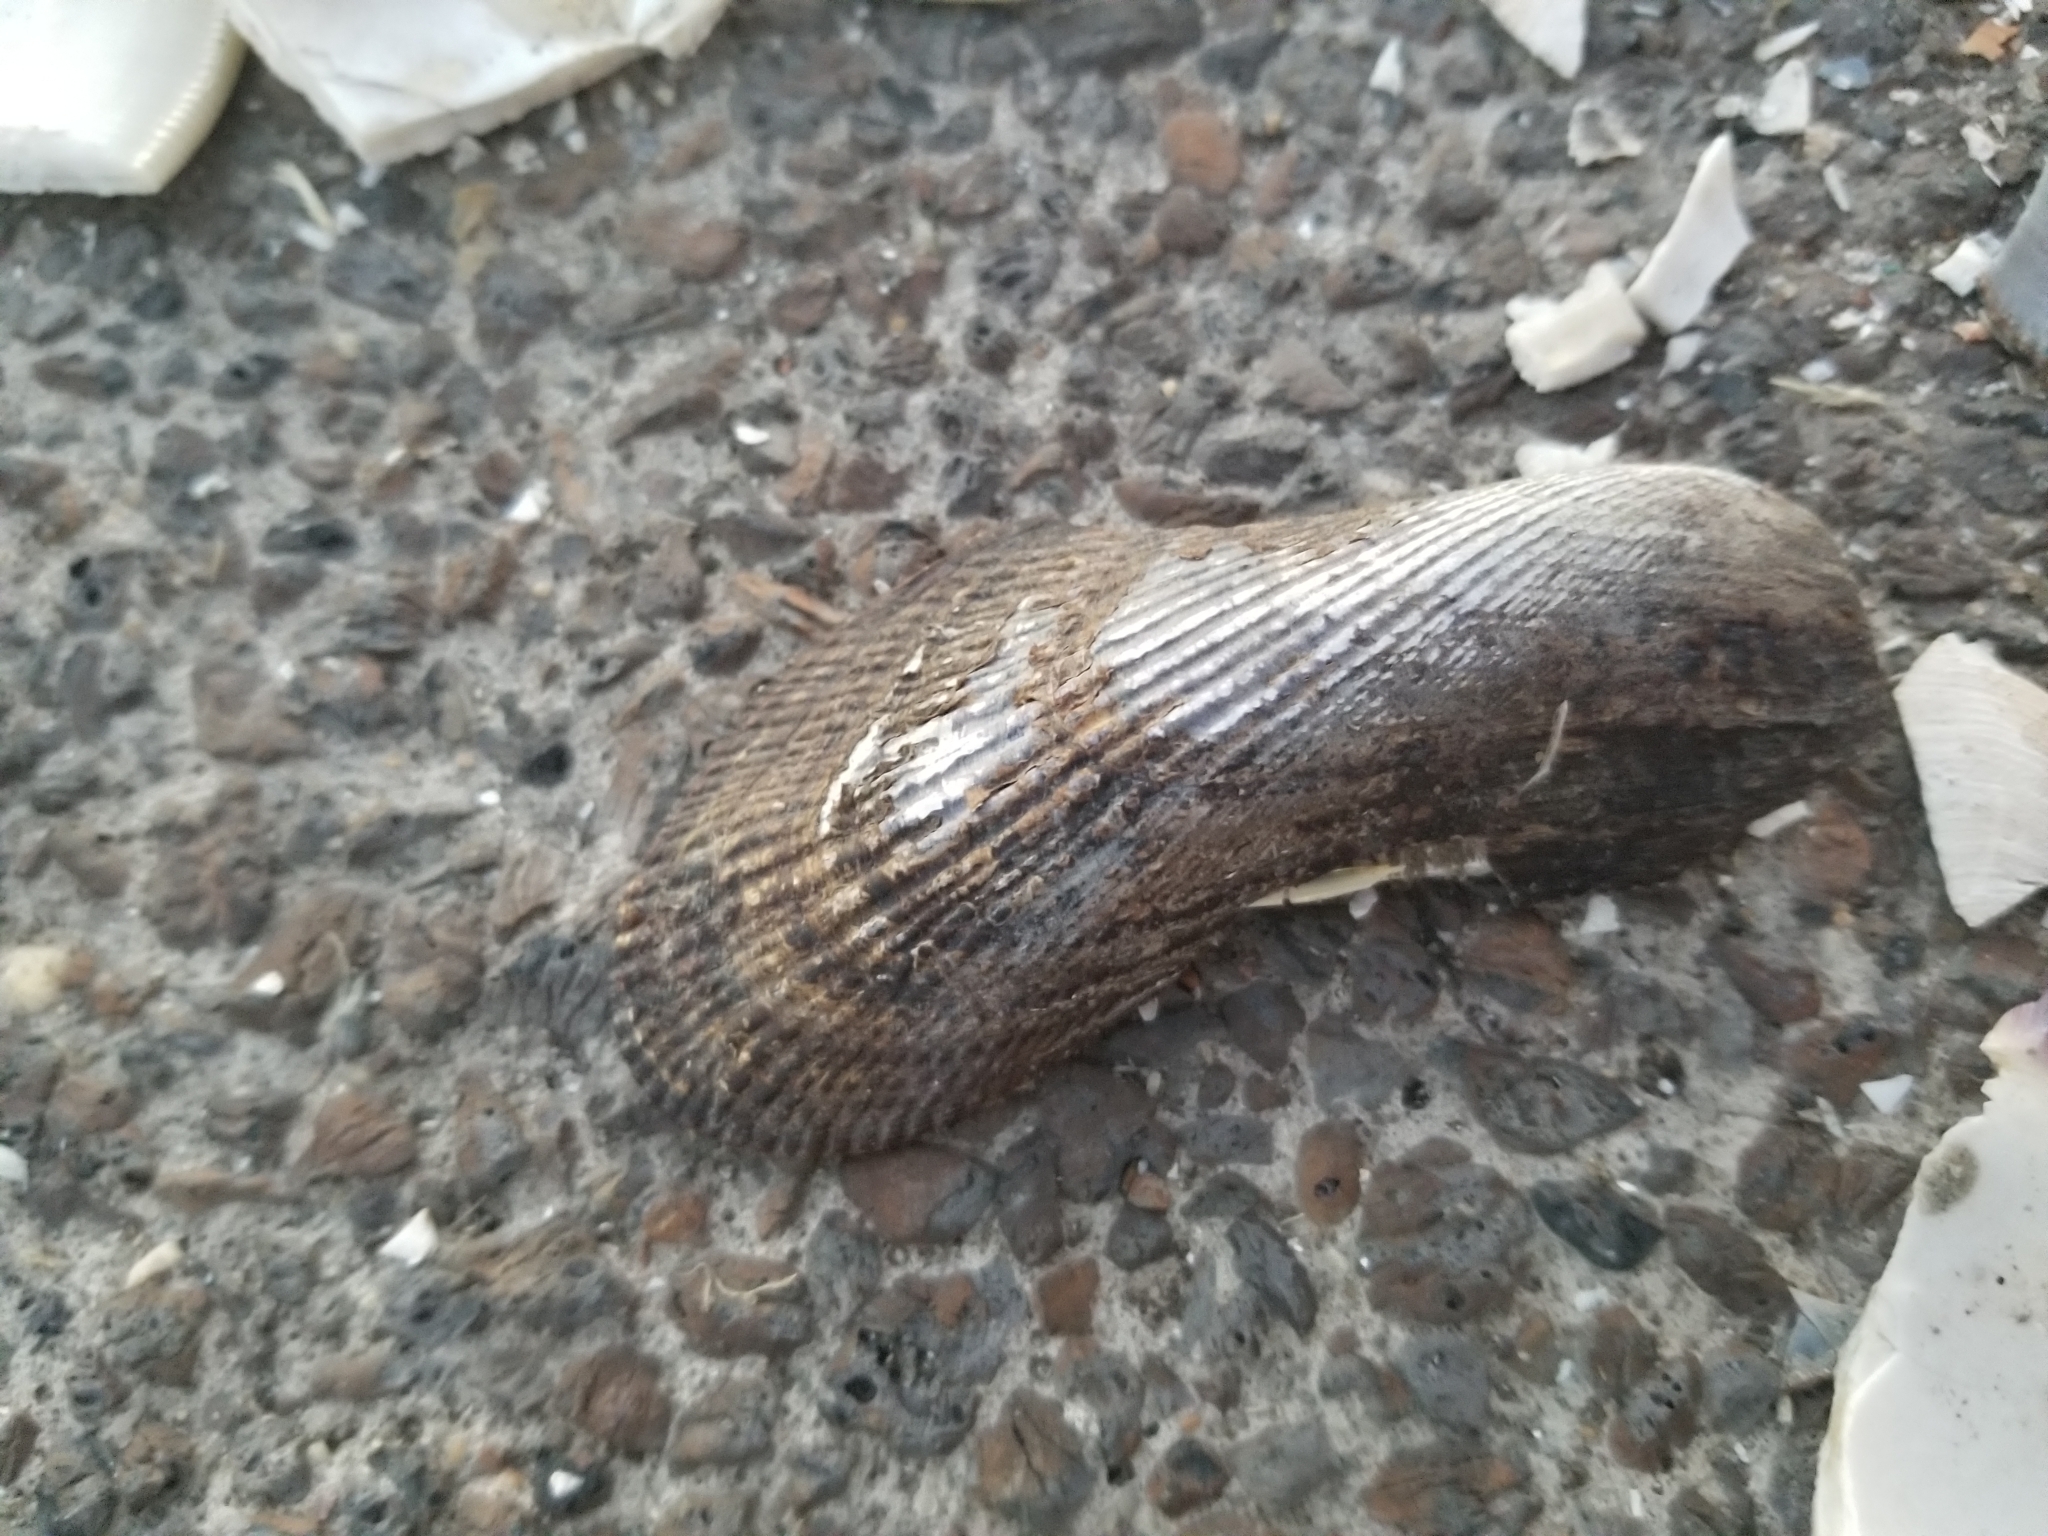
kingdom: Animalia
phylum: Mollusca
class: Bivalvia
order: Mytilida
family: Mytilidae
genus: Geukensia
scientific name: Geukensia demissa
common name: Ribbed mussel
